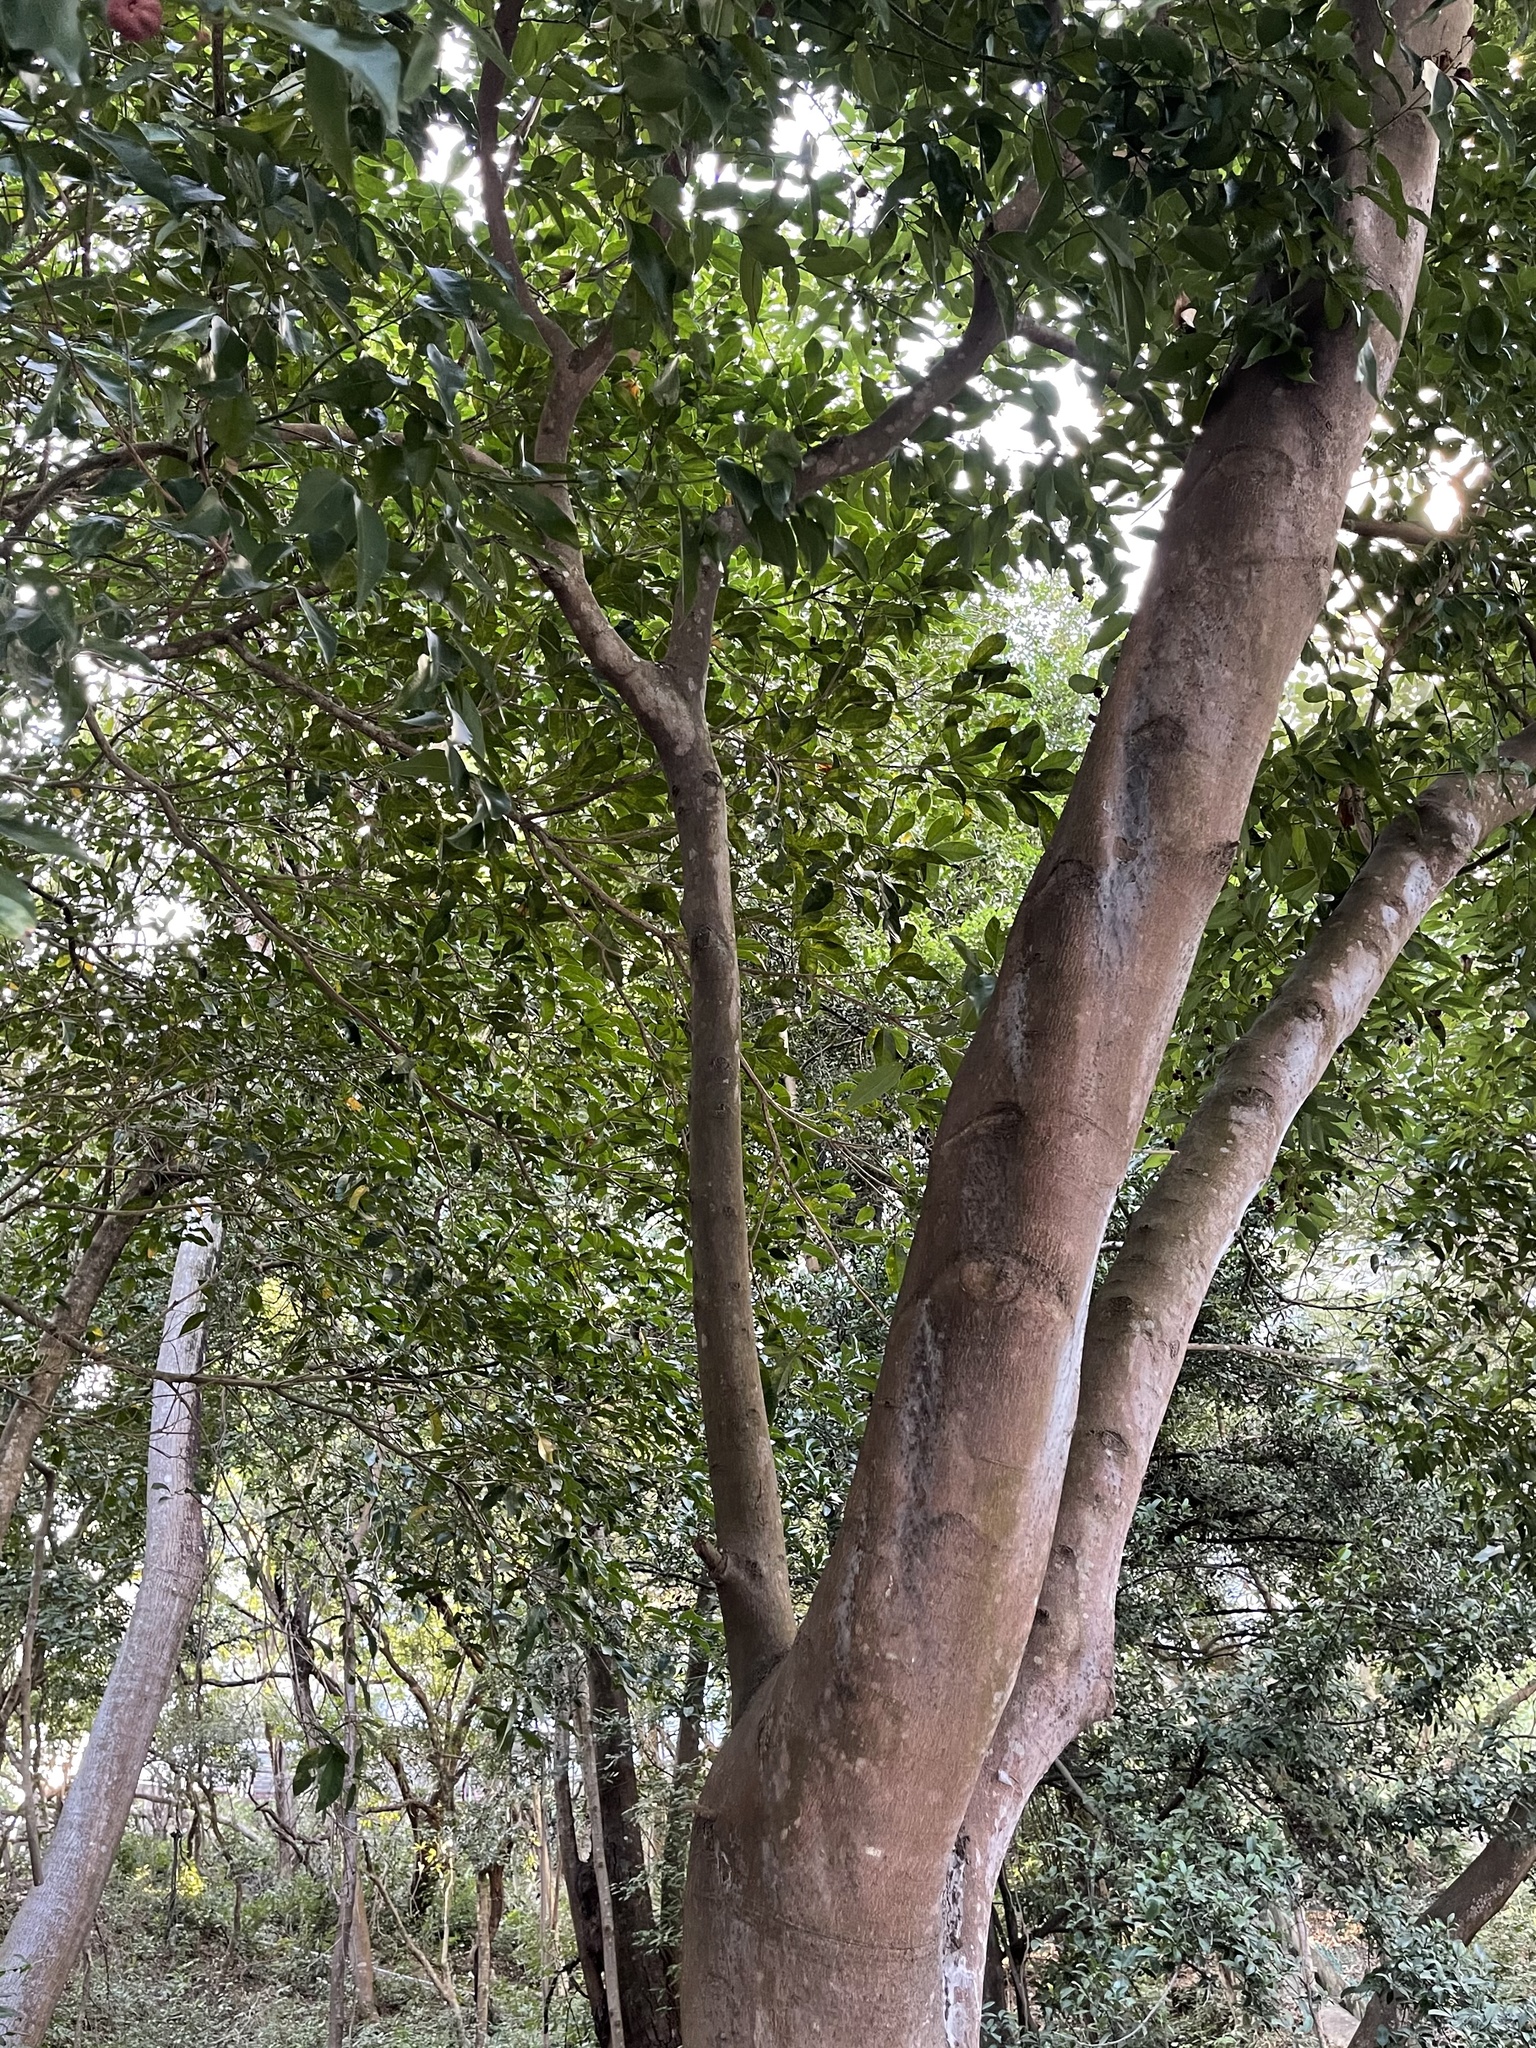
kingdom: Plantae
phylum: Tracheophyta
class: Magnoliopsida
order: Laurales
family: Lauraceae
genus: Cinnamomum
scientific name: Cinnamomum burmanni
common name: Padang cassia
